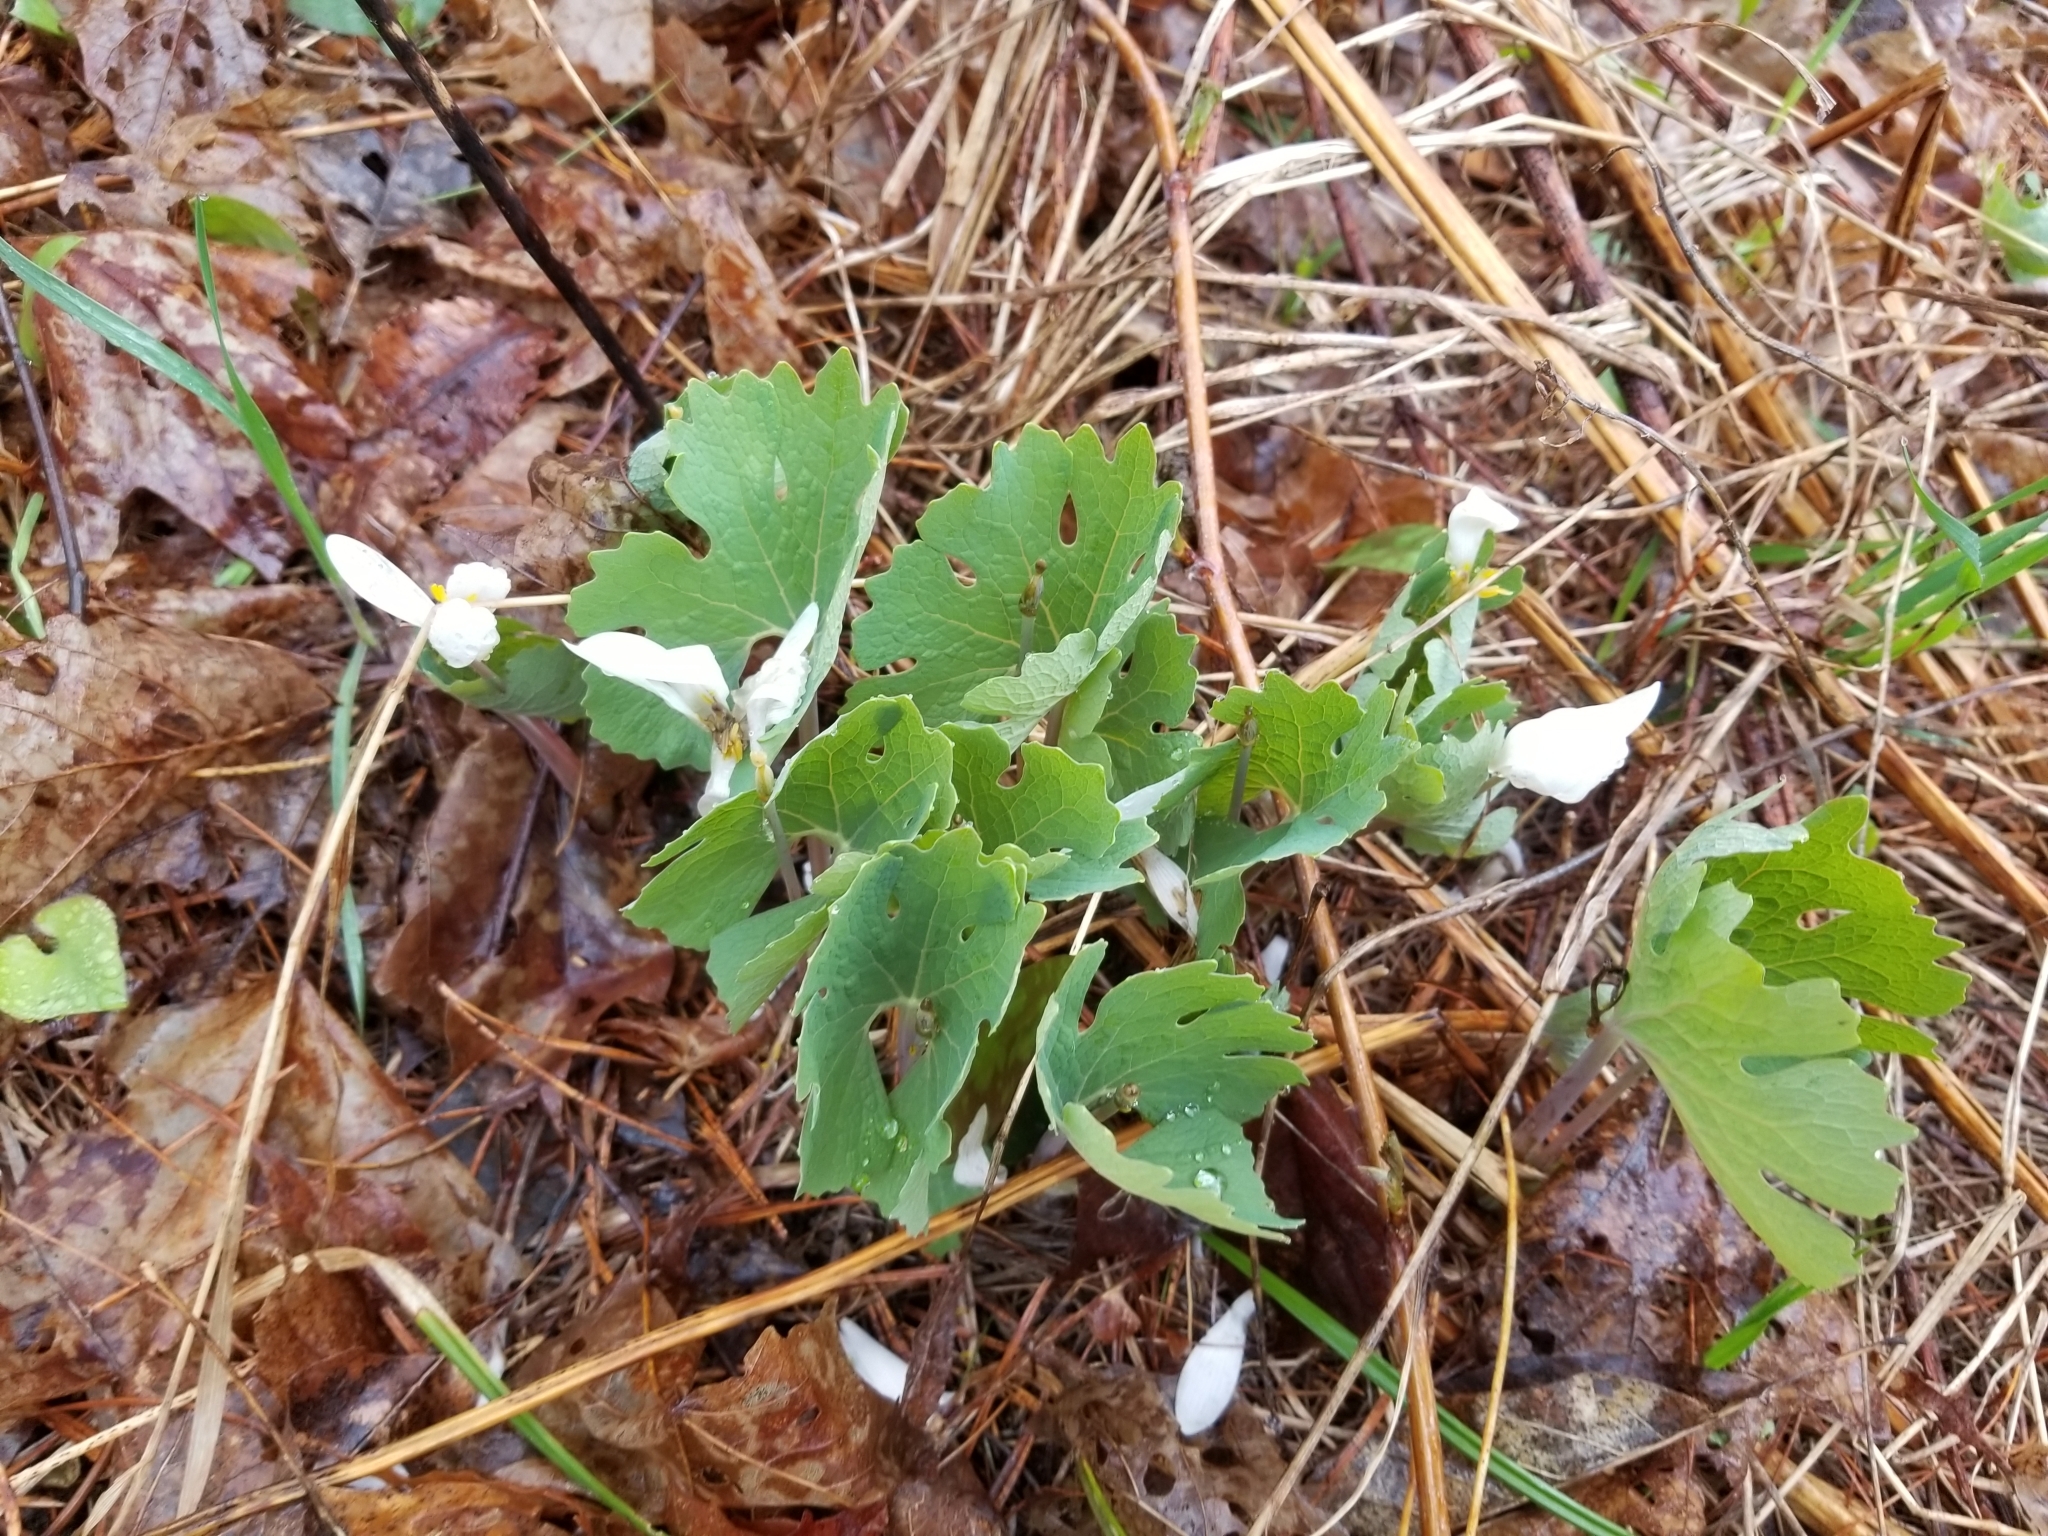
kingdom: Plantae
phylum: Tracheophyta
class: Magnoliopsida
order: Ranunculales
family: Papaveraceae
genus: Sanguinaria
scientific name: Sanguinaria canadensis
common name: Bloodroot
